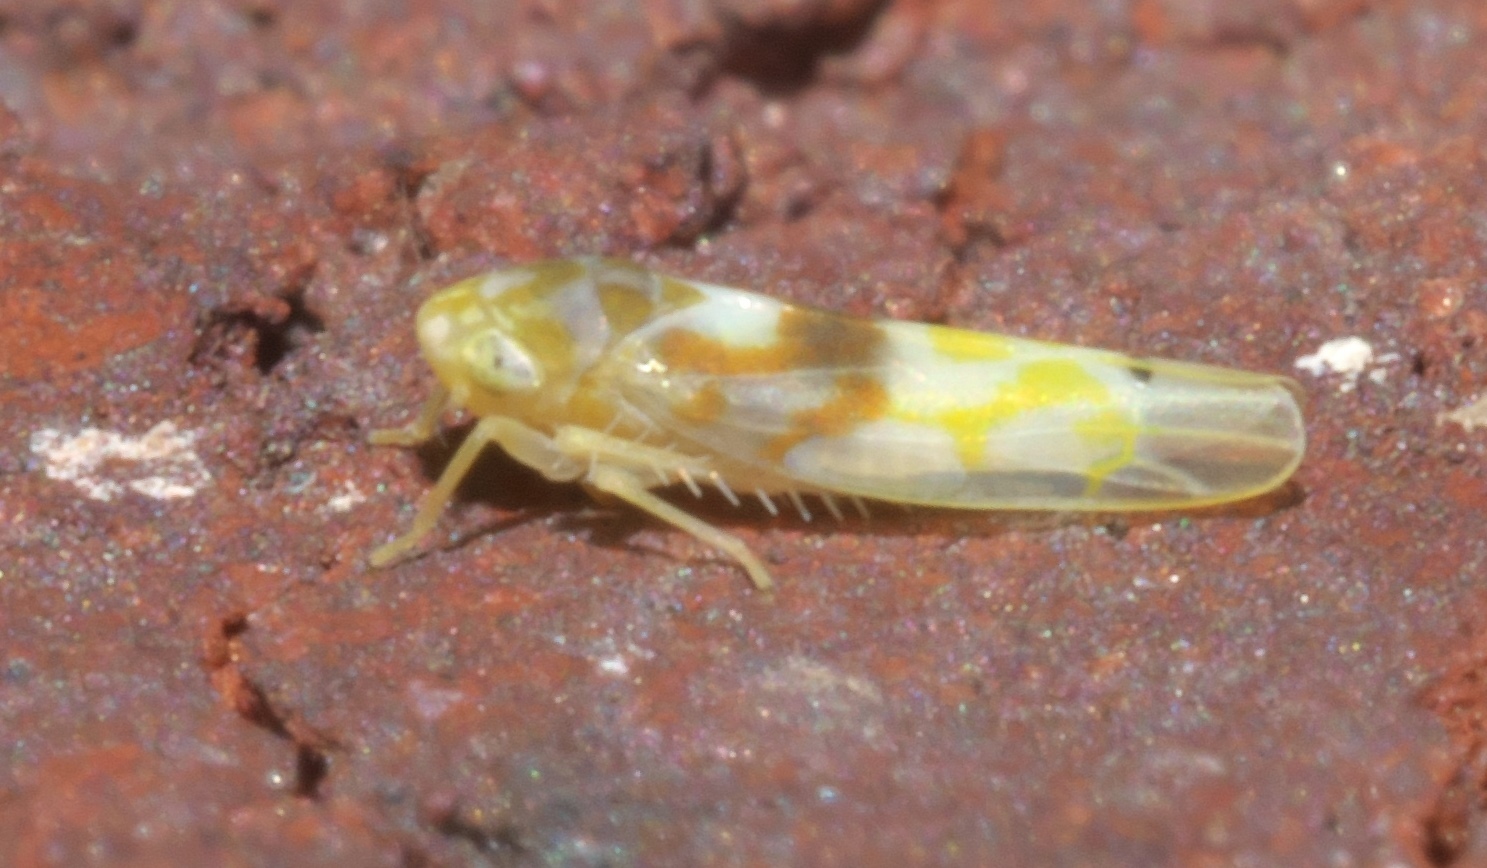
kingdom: Animalia
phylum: Arthropoda
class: Insecta
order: Hemiptera
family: Cicadellidae
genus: Eratoneura
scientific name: Eratoneura affinis
